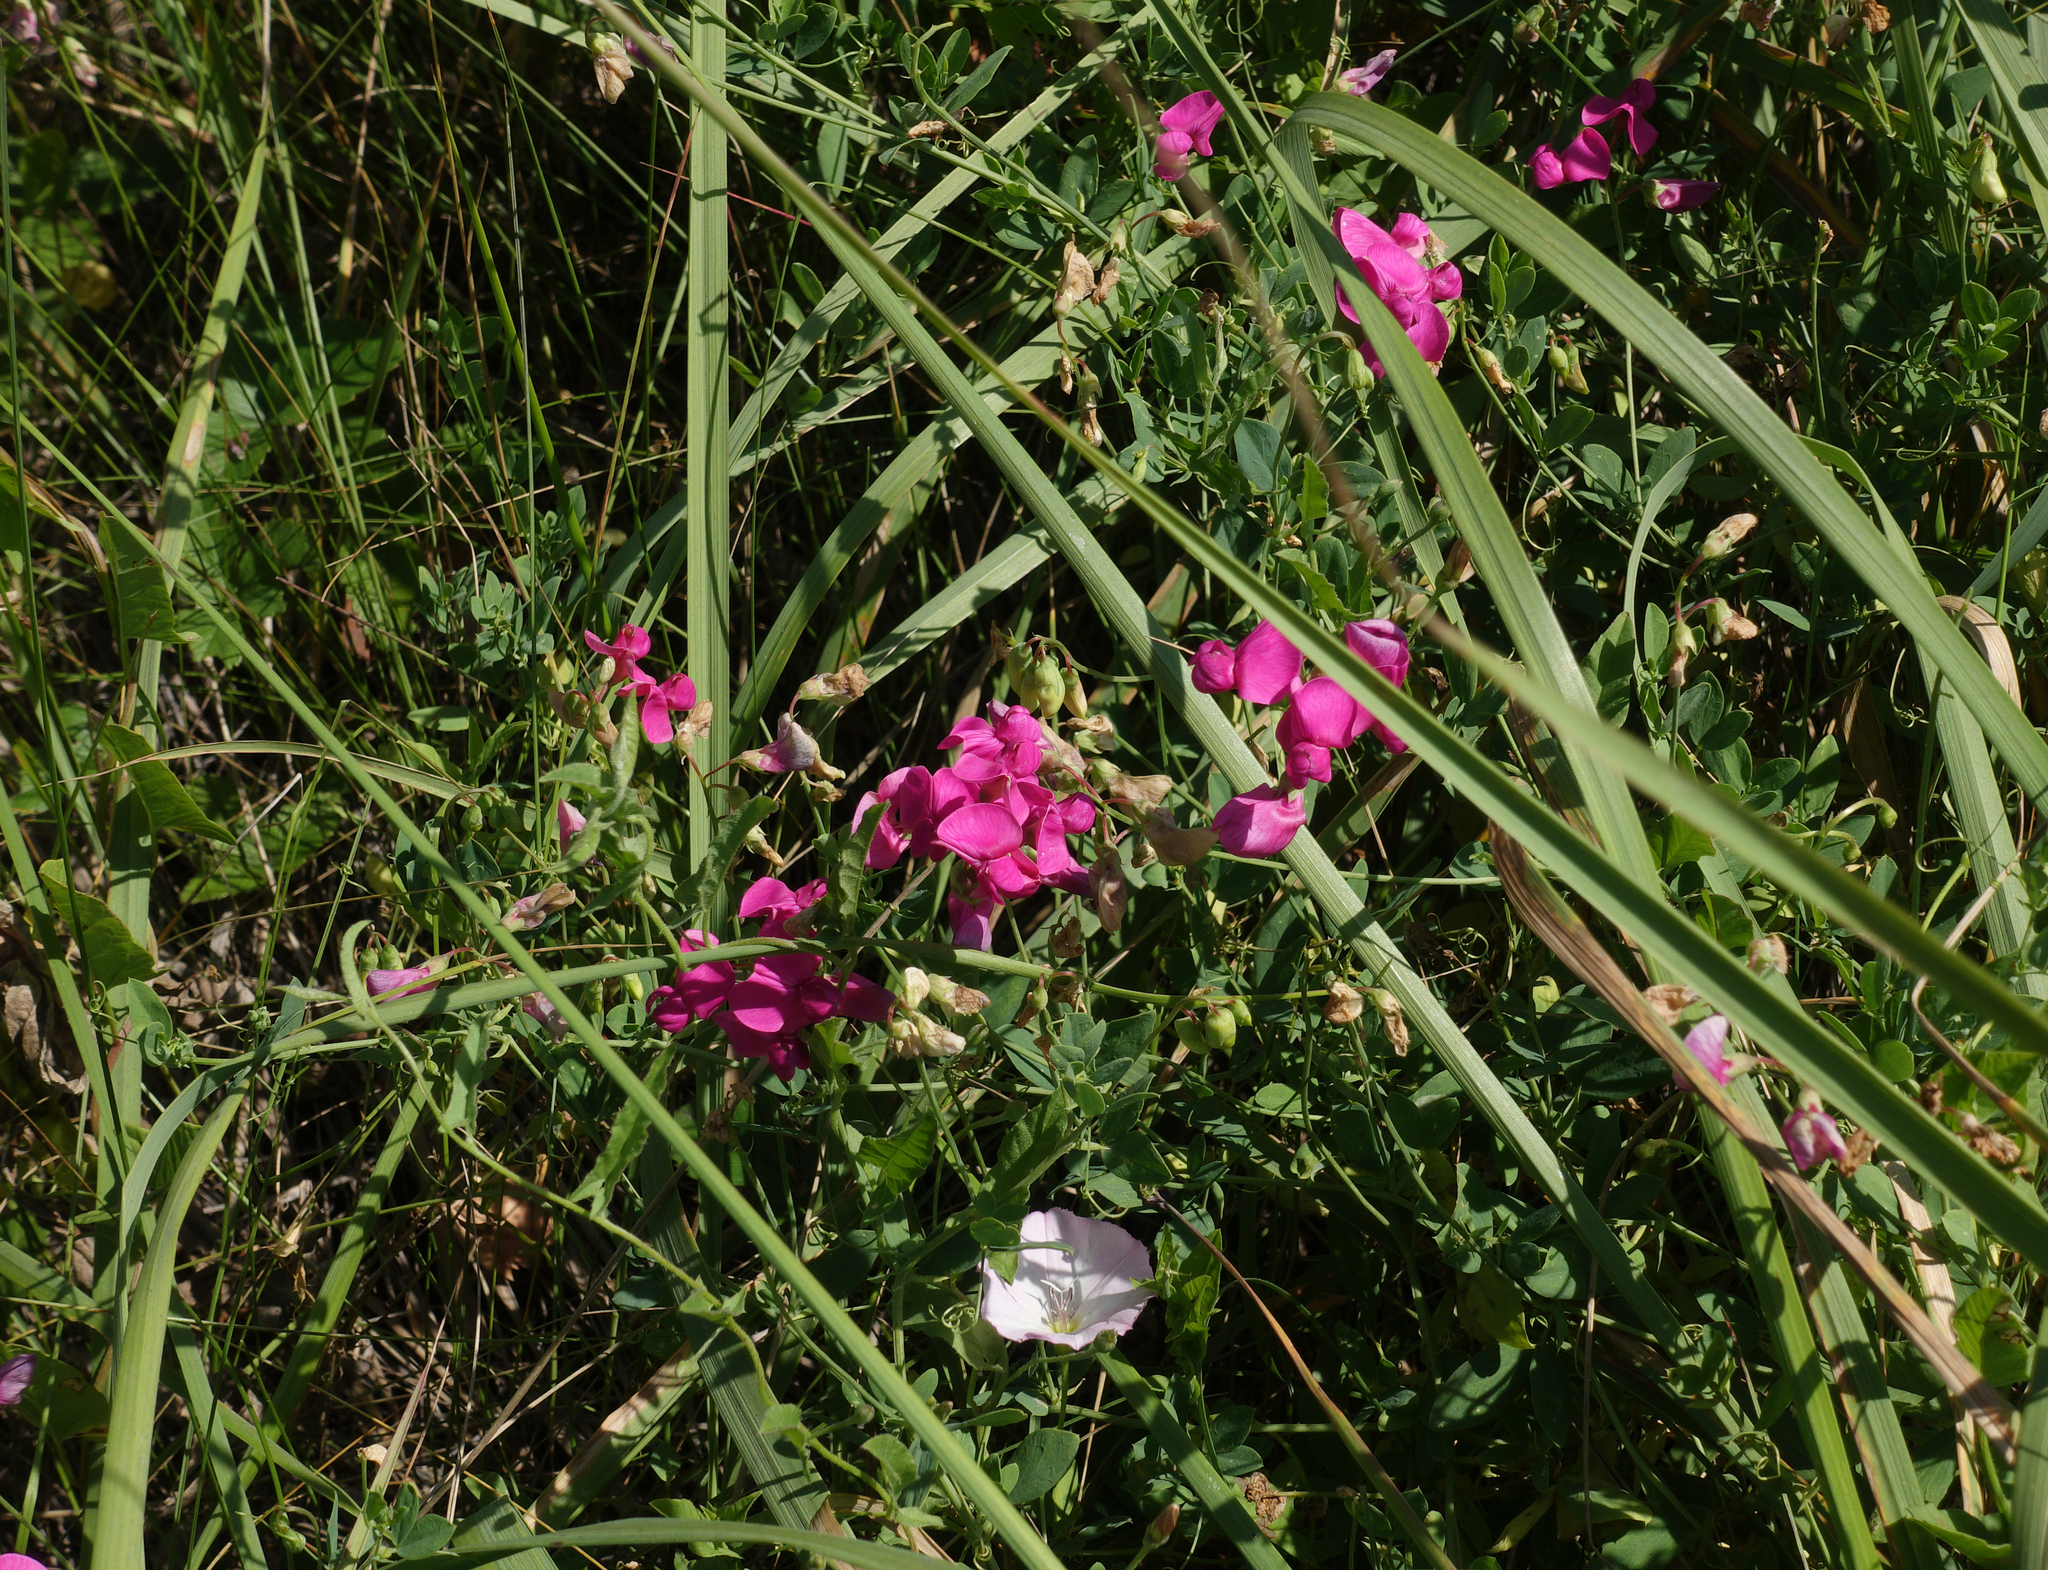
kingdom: Plantae
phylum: Tracheophyta
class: Magnoliopsida
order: Fabales
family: Fabaceae
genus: Lathyrus
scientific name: Lathyrus tuberosus
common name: Tuberous pea
